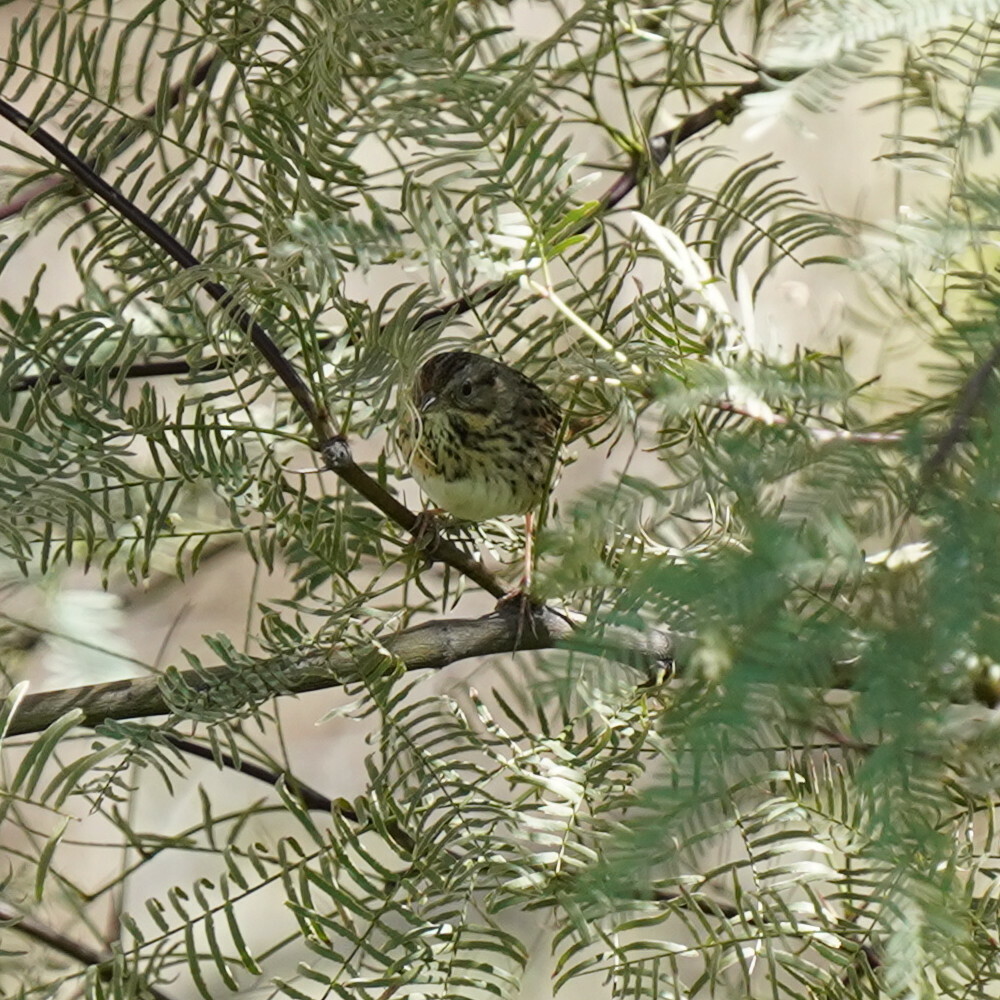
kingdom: Animalia
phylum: Chordata
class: Aves
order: Passeriformes
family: Passerellidae
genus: Melospiza
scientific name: Melospiza lincolnii
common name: Lincoln's sparrow
